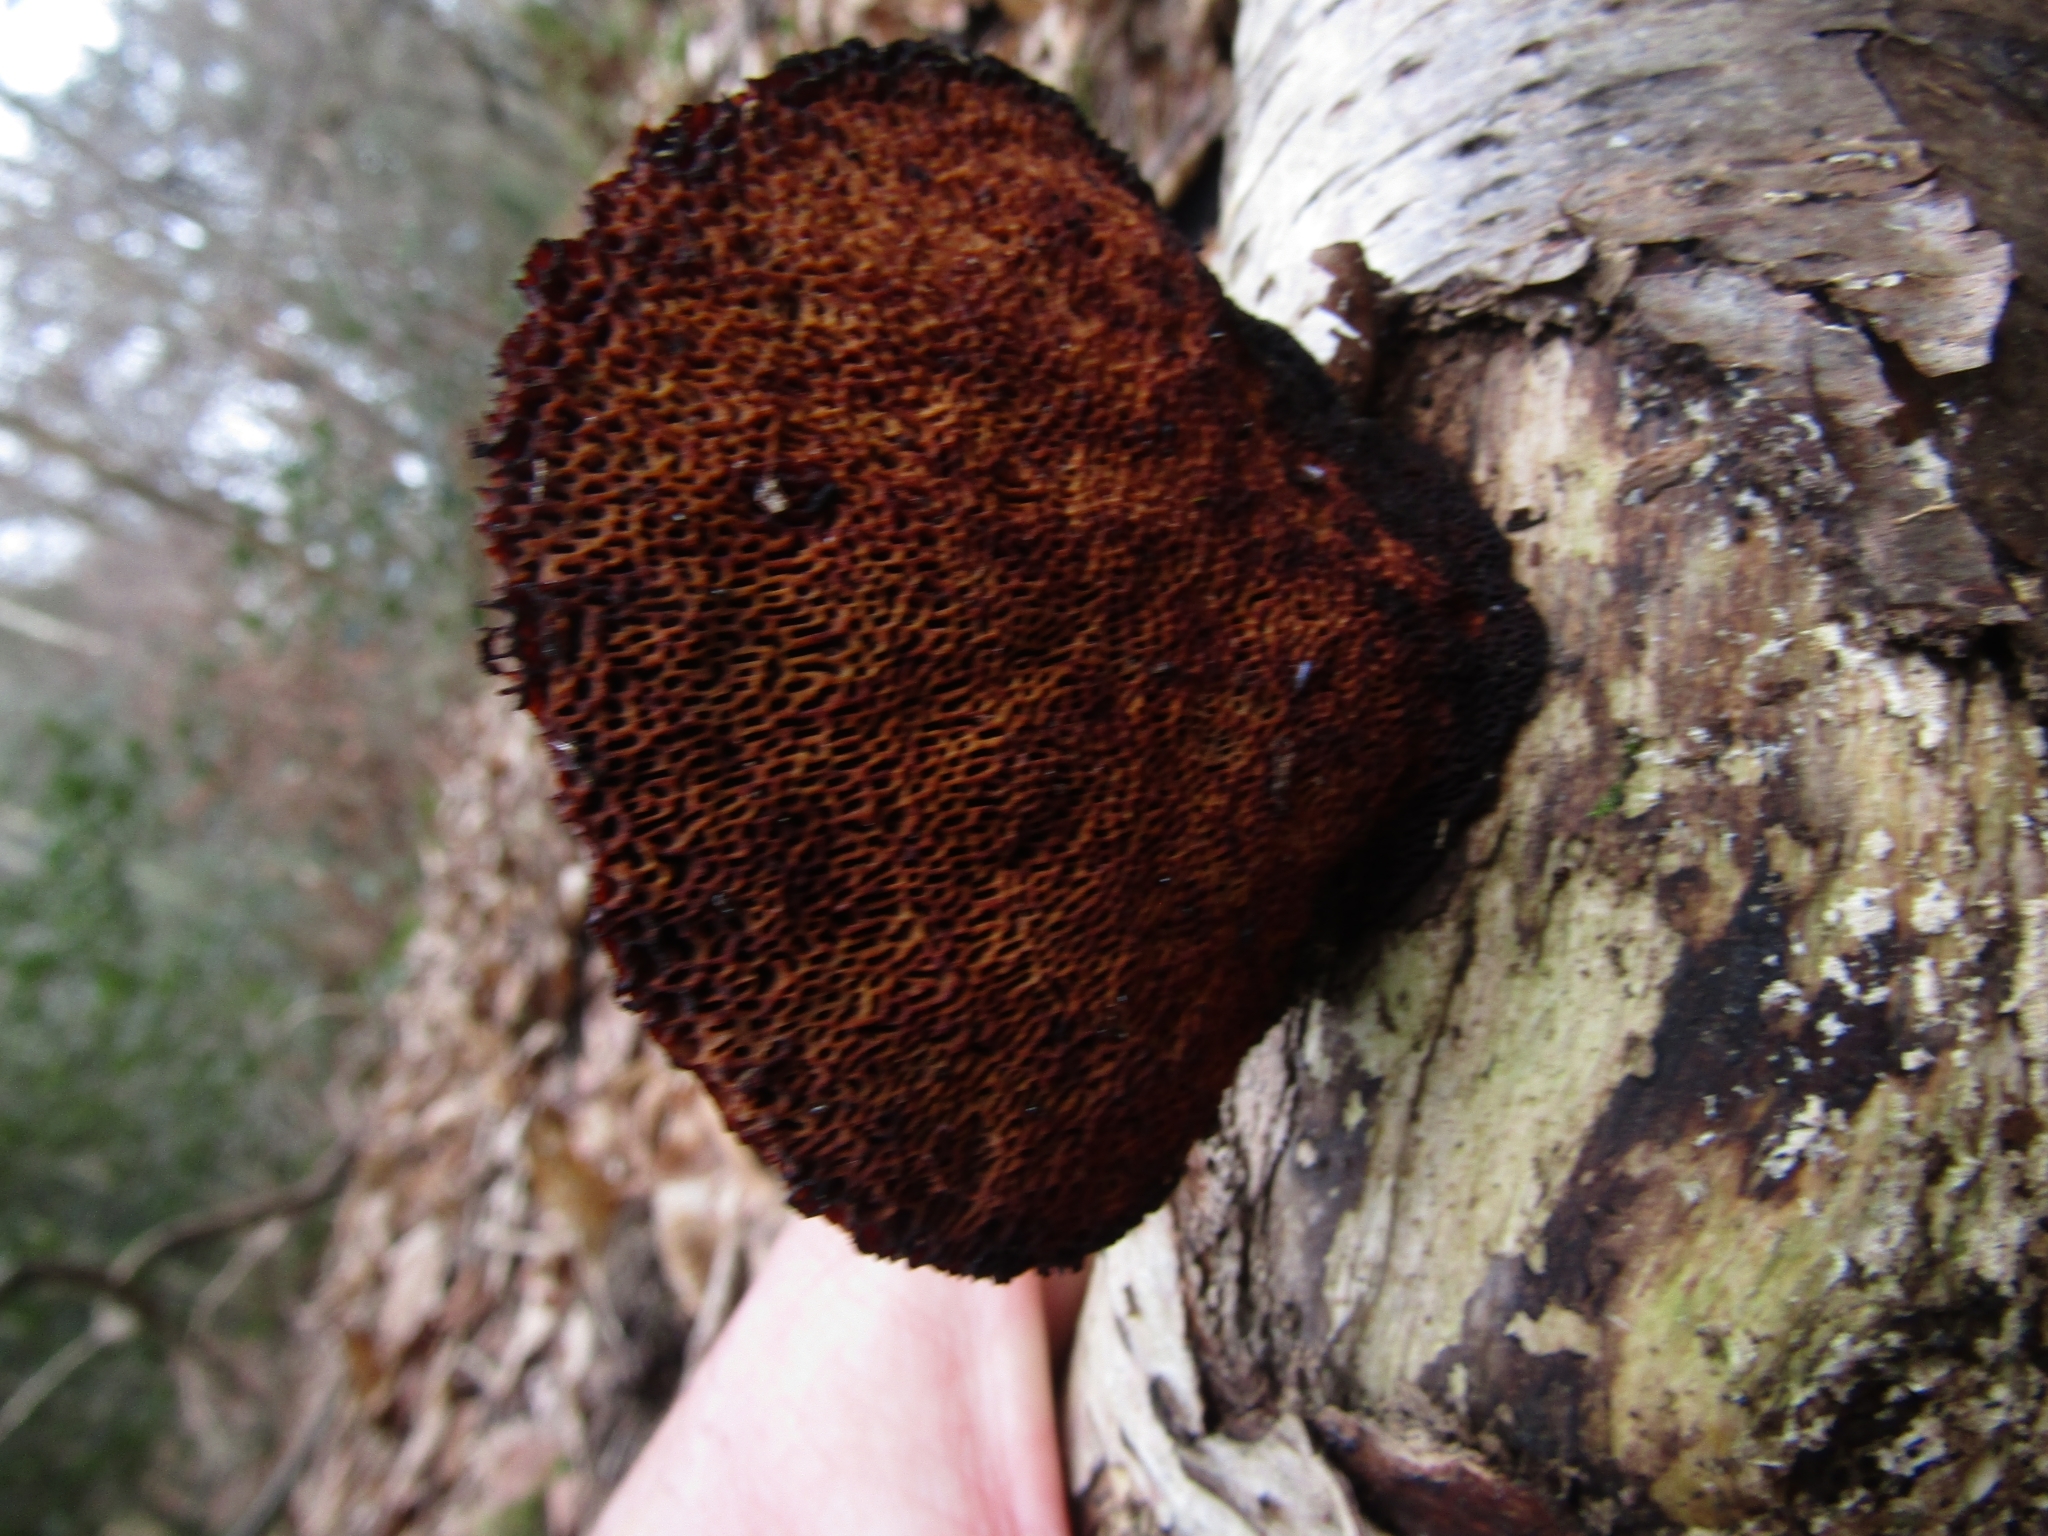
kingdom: Fungi
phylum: Basidiomycota
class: Agaricomycetes
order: Polyporales
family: Polyporaceae
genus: Daedaleopsis
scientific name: Daedaleopsis confragosa
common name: Blushing bracket
